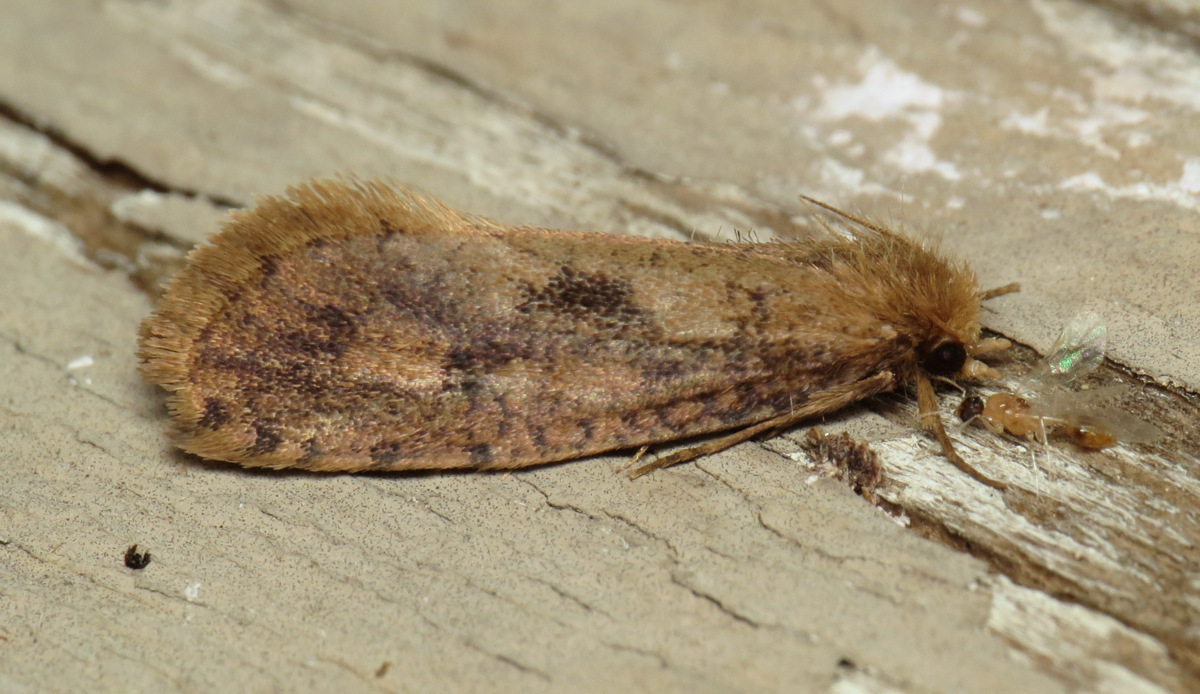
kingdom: Animalia
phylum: Arthropoda
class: Insecta
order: Lepidoptera
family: Tineidae
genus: Acrolophus
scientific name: Acrolophus popeanella
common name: Clemens' grass tubeworm moth
